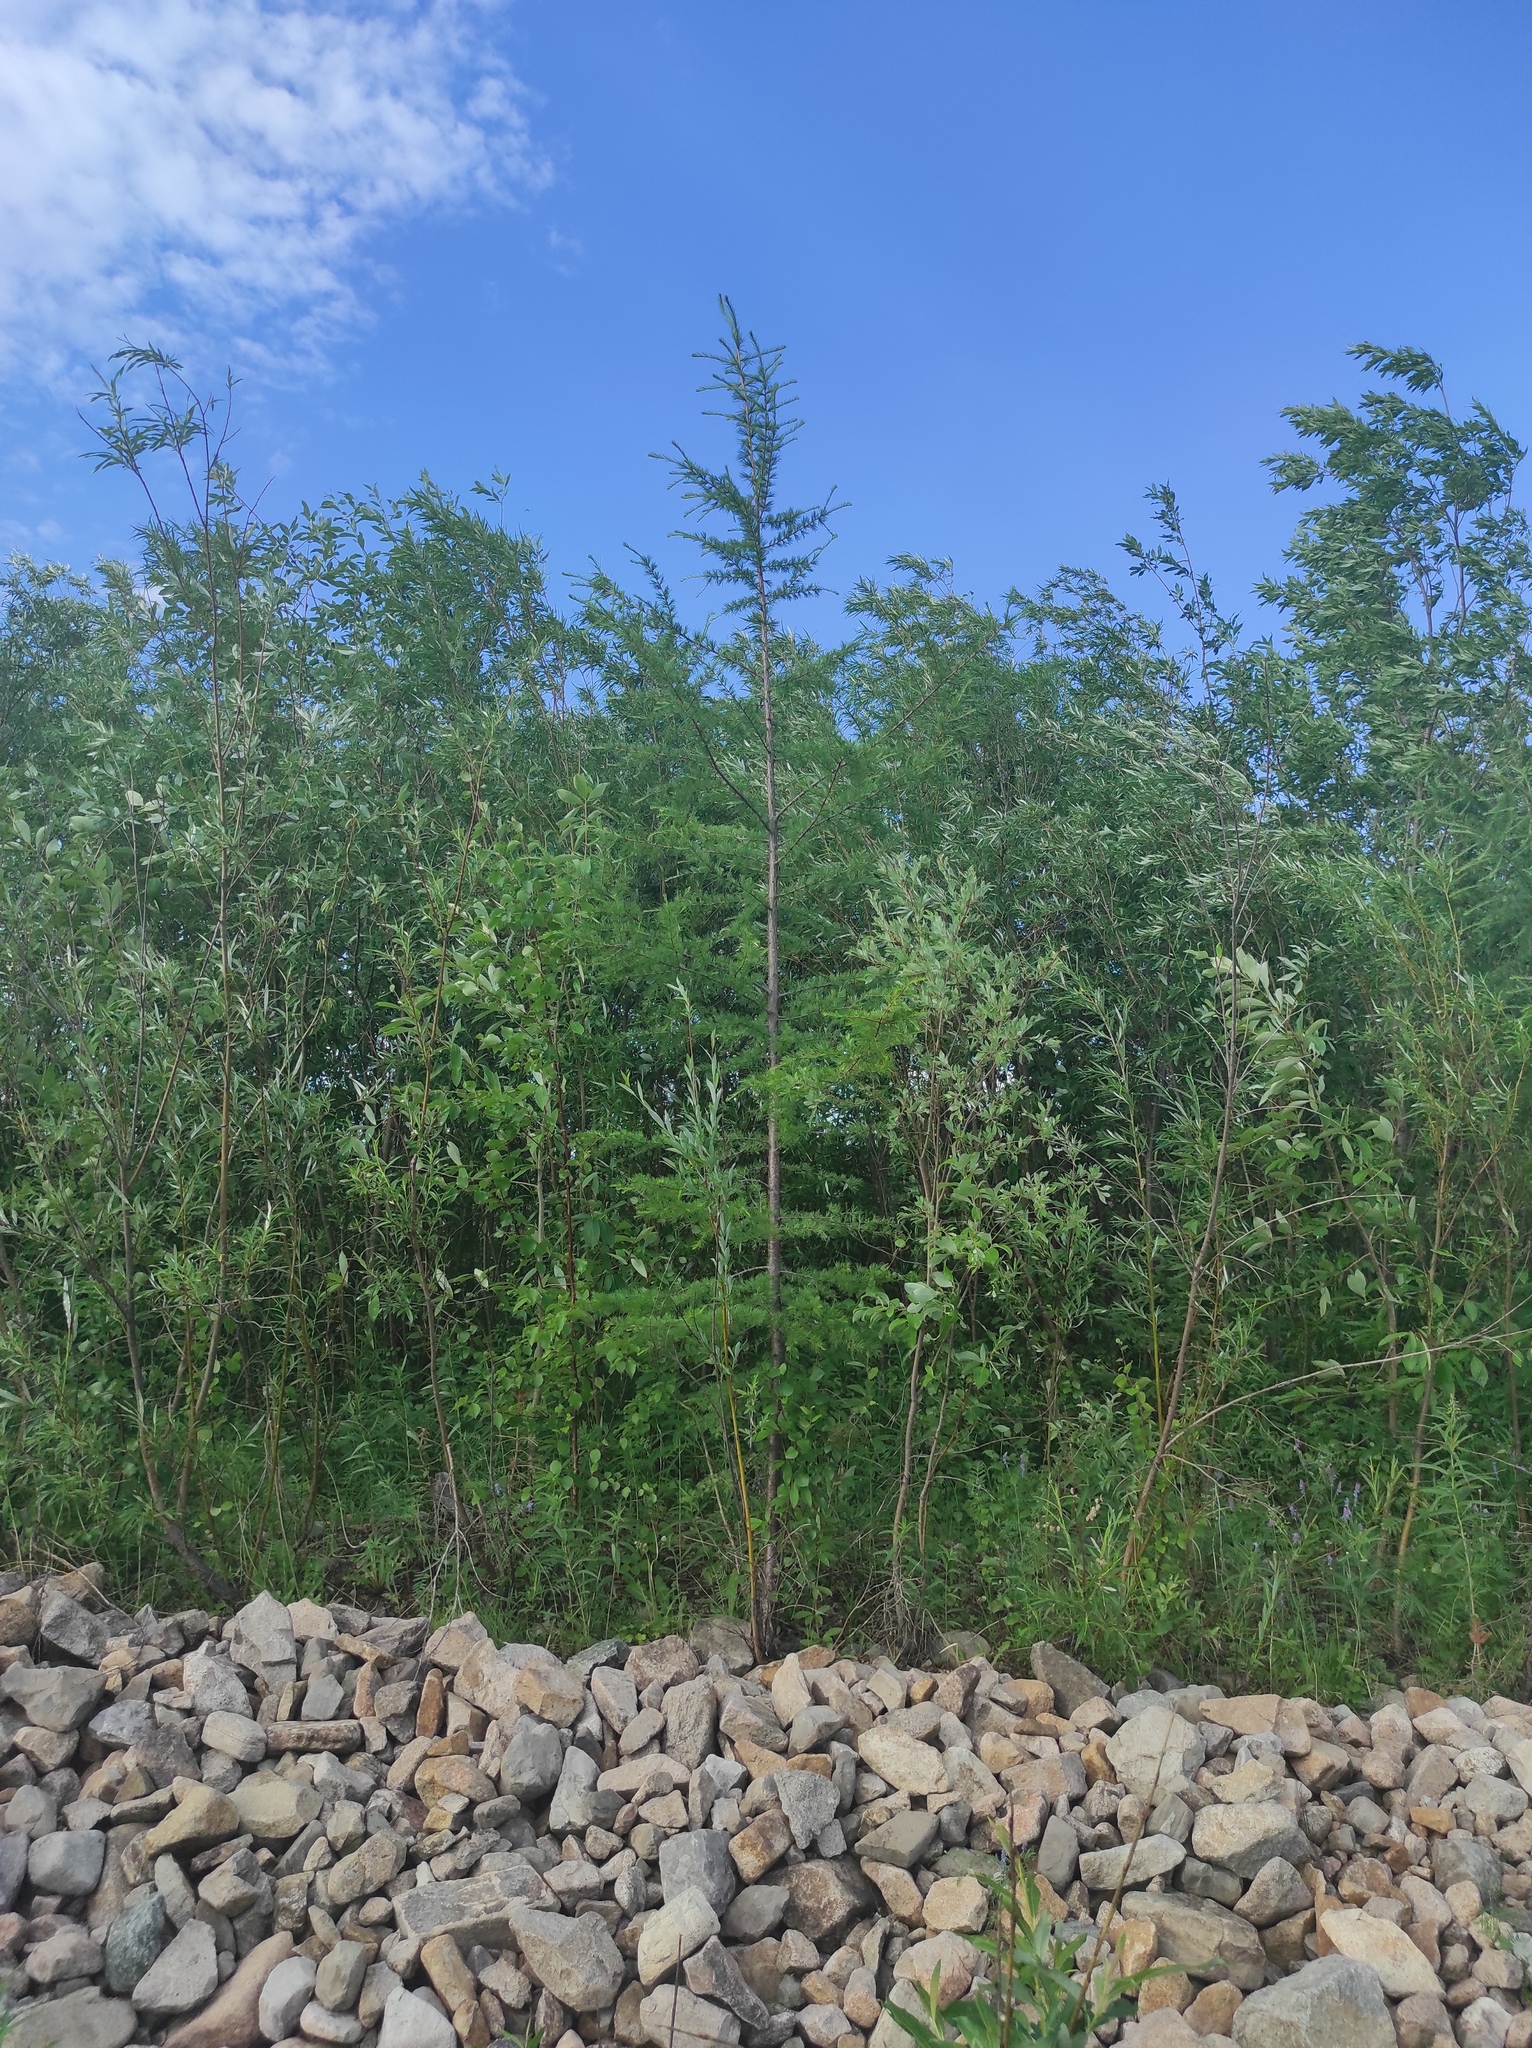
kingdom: Plantae
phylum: Tracheophyta
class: Pinopsida
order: Pinales
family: Pinaceae
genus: Larix
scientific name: Larix gmelinii
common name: Dahurian larch
